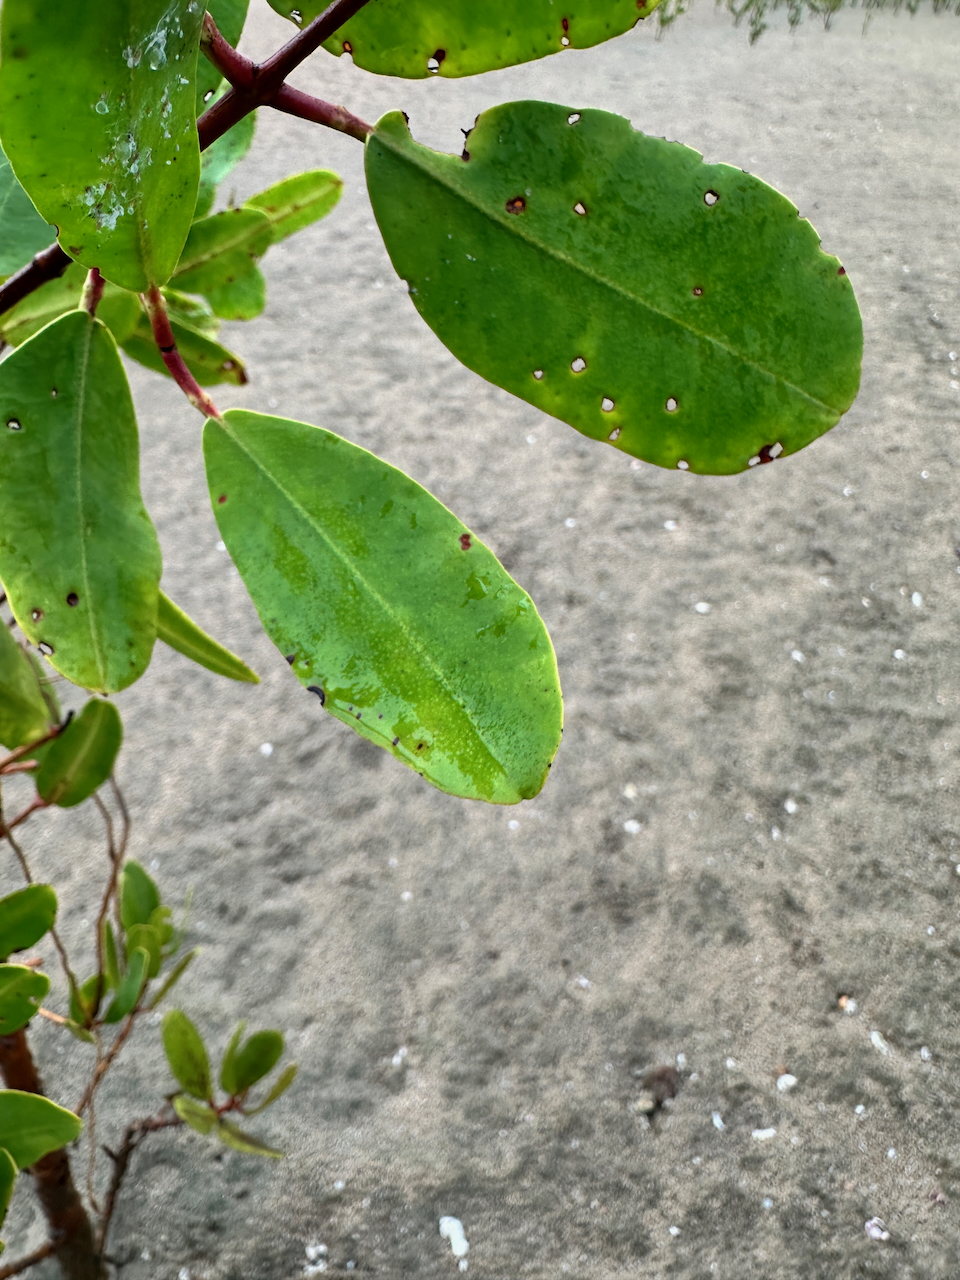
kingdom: Plantae
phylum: Tracheophyta
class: Magnoliopsida
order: Myrtales
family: Combretaceae
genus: Laguncularia
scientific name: Laguncularia racemosa
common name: White mangrove
